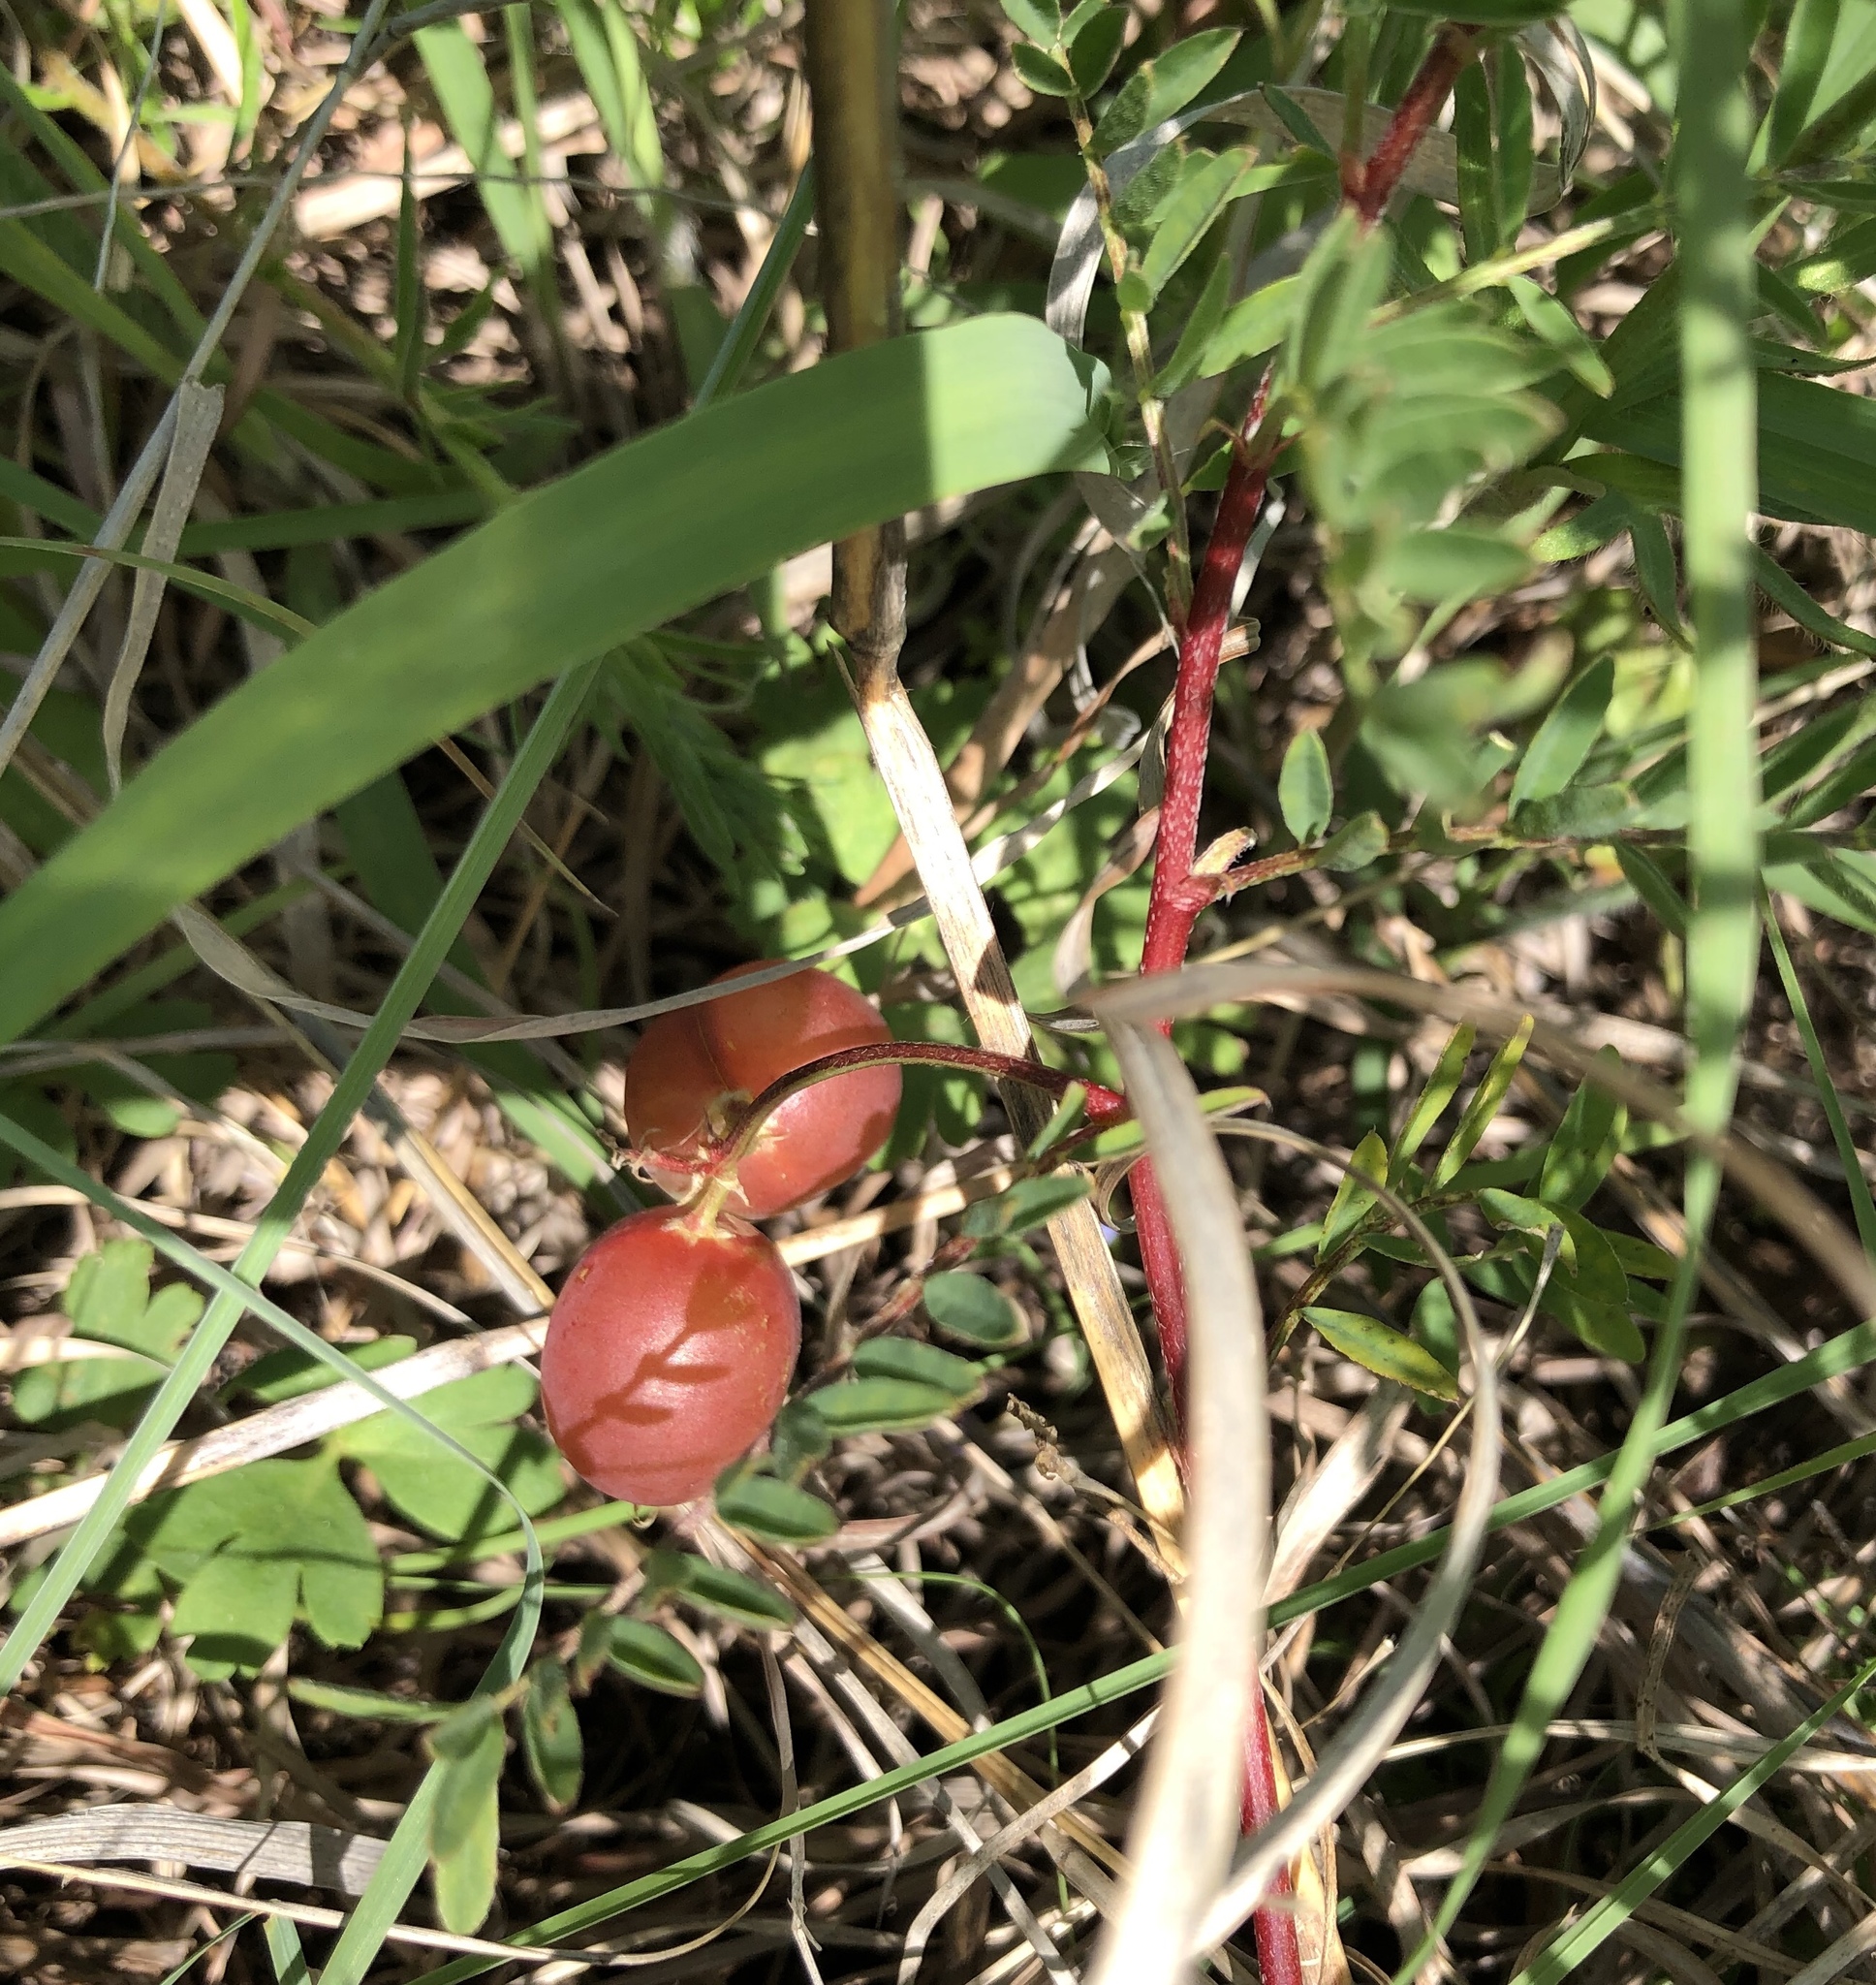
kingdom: Plantae
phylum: Tracheophyta
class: Magnoliopsida
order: Fabales
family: Fabaceae
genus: Astragalus
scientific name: Astragalus crassicarpus
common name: Ground-plum milk-vetch
